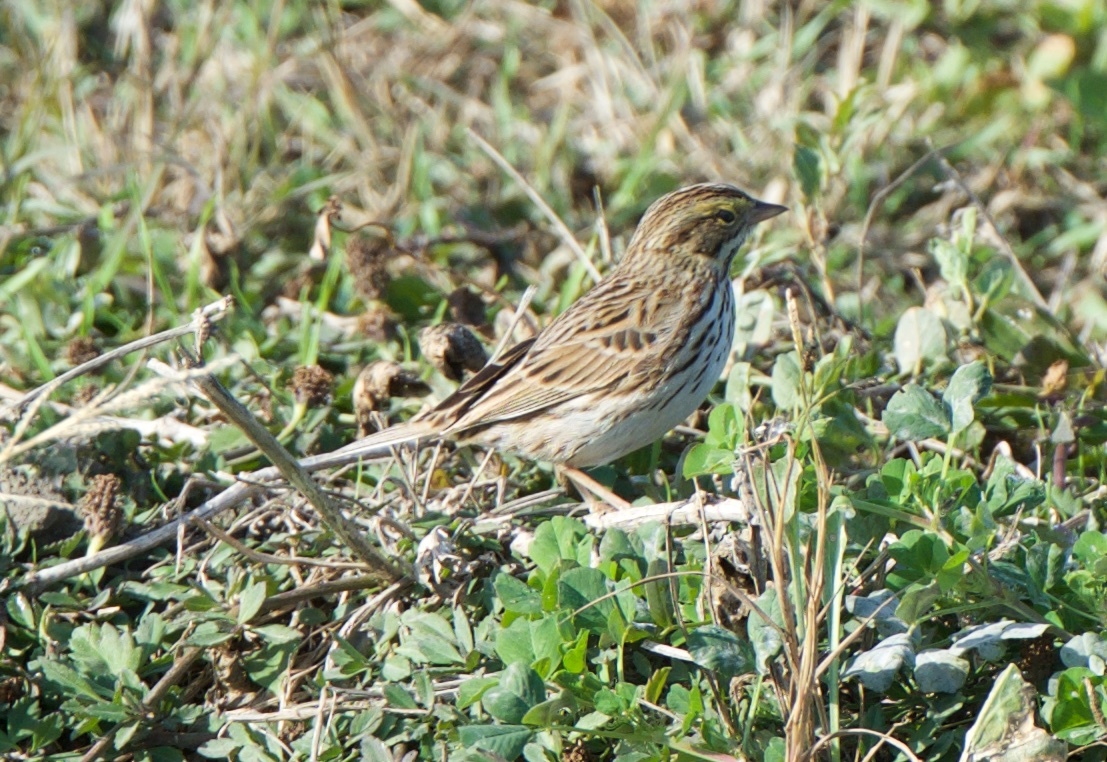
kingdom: Animalia
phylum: Chordata
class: Aves
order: Passeriformes
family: Passerellidae
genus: Passerculus
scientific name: Passerculus sandwichensis
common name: Savannah sparrow
